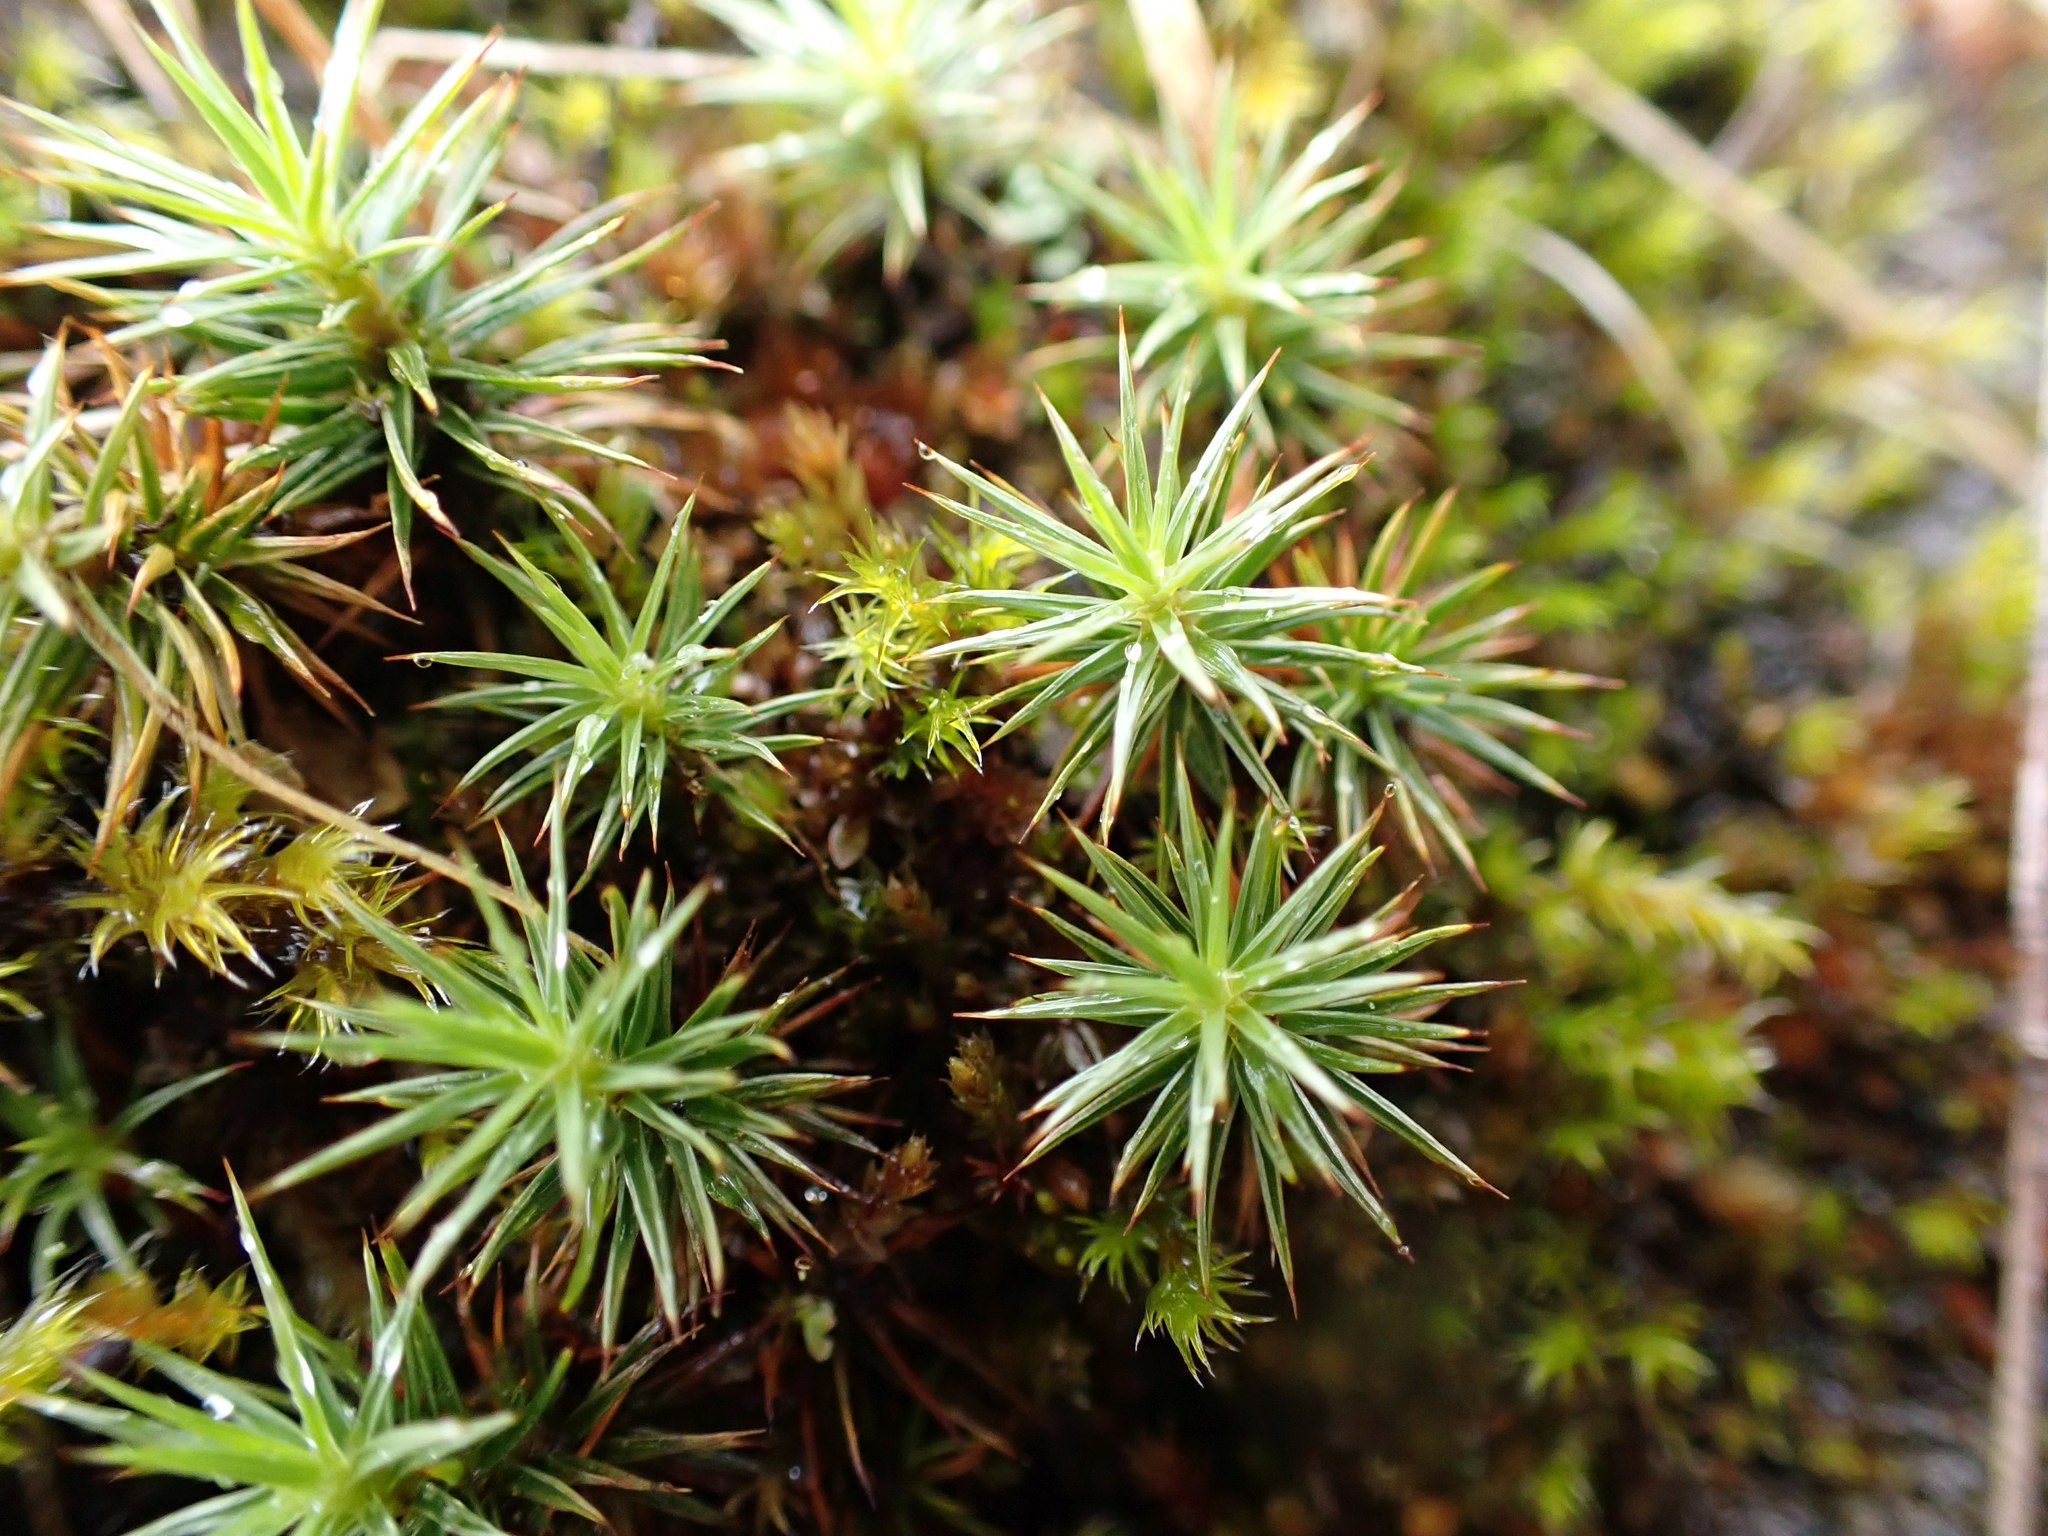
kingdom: Plantae
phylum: Bryophyta
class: Polytrichopsida
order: Polytrichales
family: Polytrichaceae
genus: Polytrichum
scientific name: Polytrichum juniperinum
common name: Juniper haircap moss
